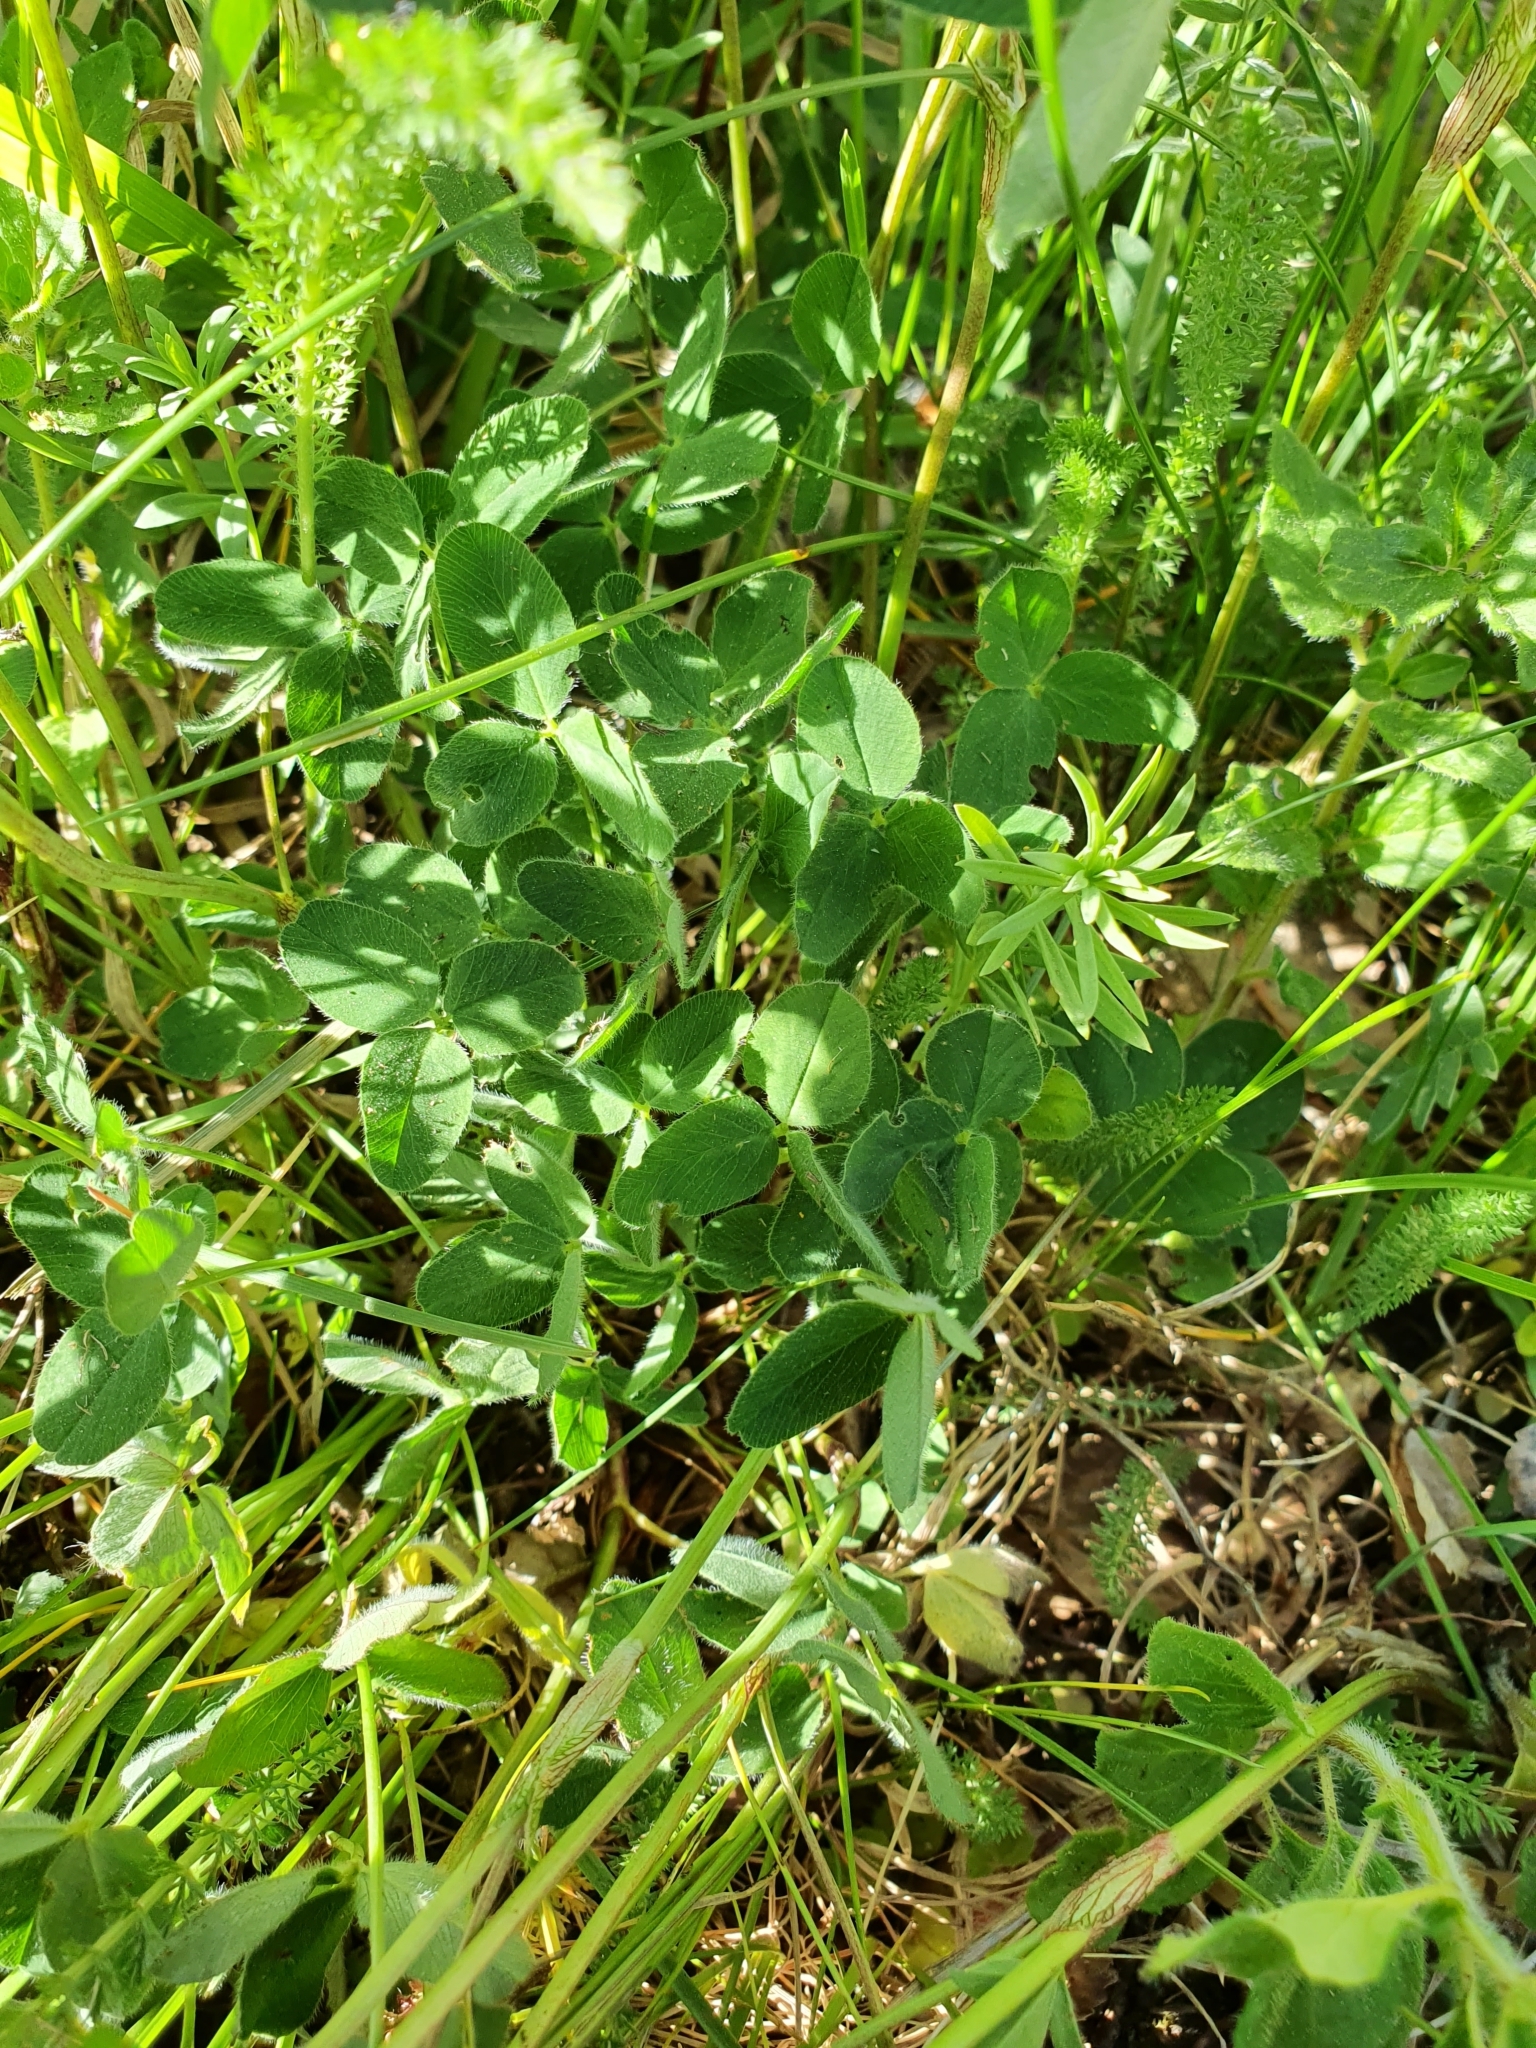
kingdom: Plantae
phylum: Tracheophyta
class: Magnoliopsida
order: Fabales
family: Fabaceae
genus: Trifolium
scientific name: Trifolium pratense
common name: Red clover
